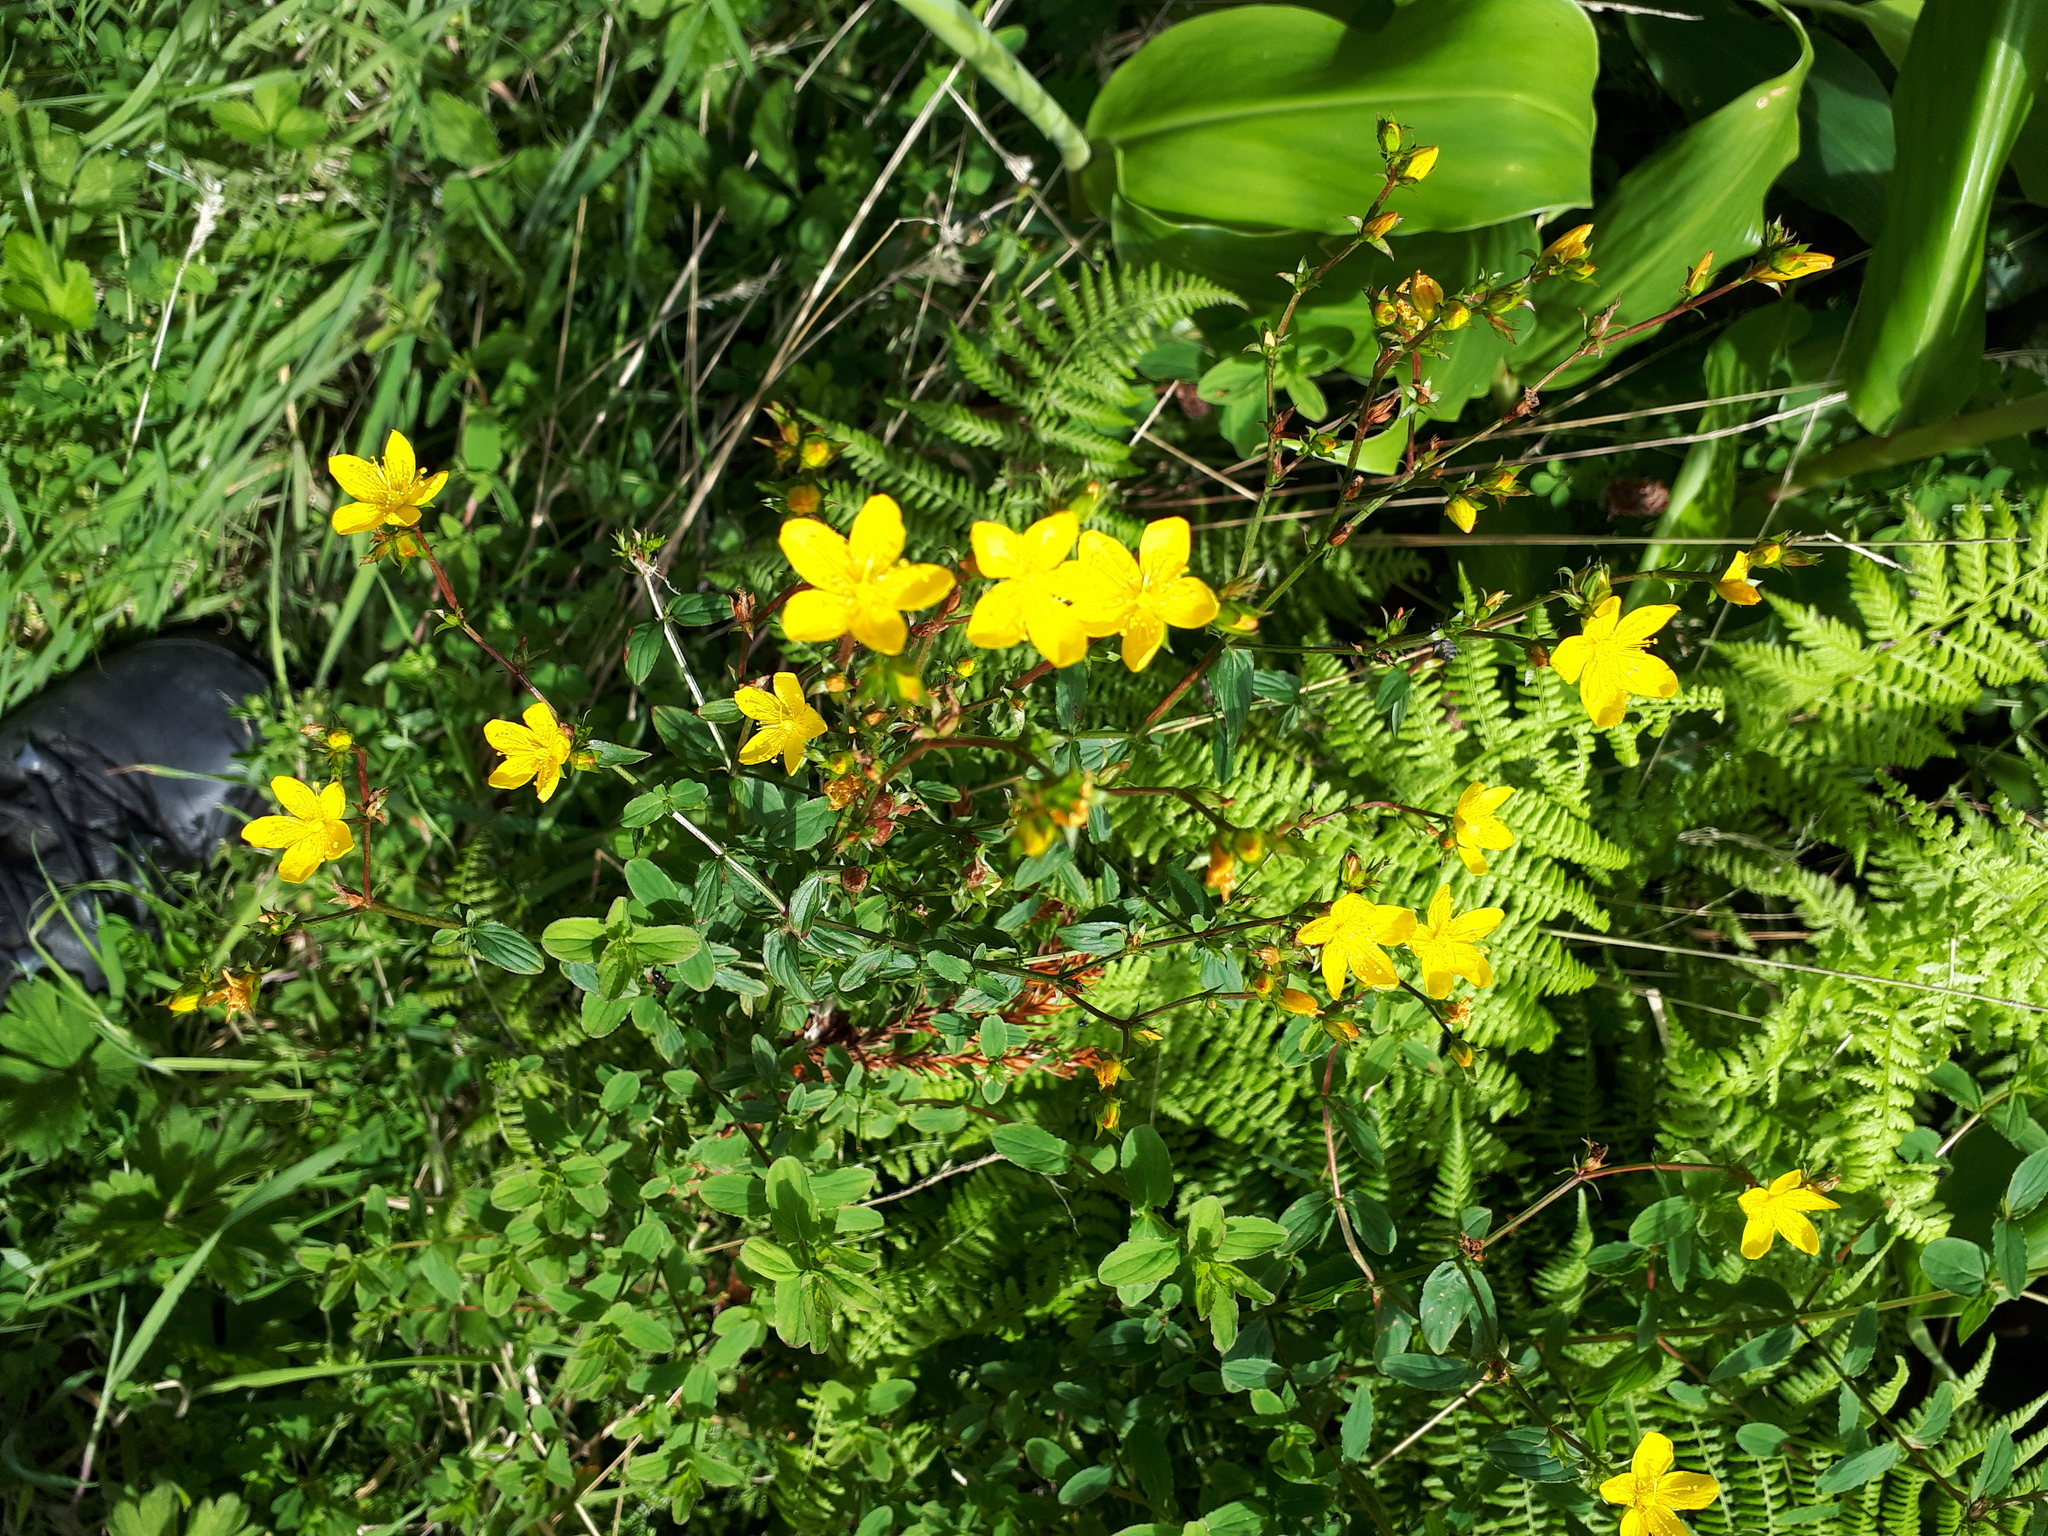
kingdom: Plantae
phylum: Tracheophyta
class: Magnoliopsida
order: Malpighiales
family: Hypericaceae
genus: Hypericum
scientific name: Hypericum undulatum
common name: Wavy st. john's-wort
